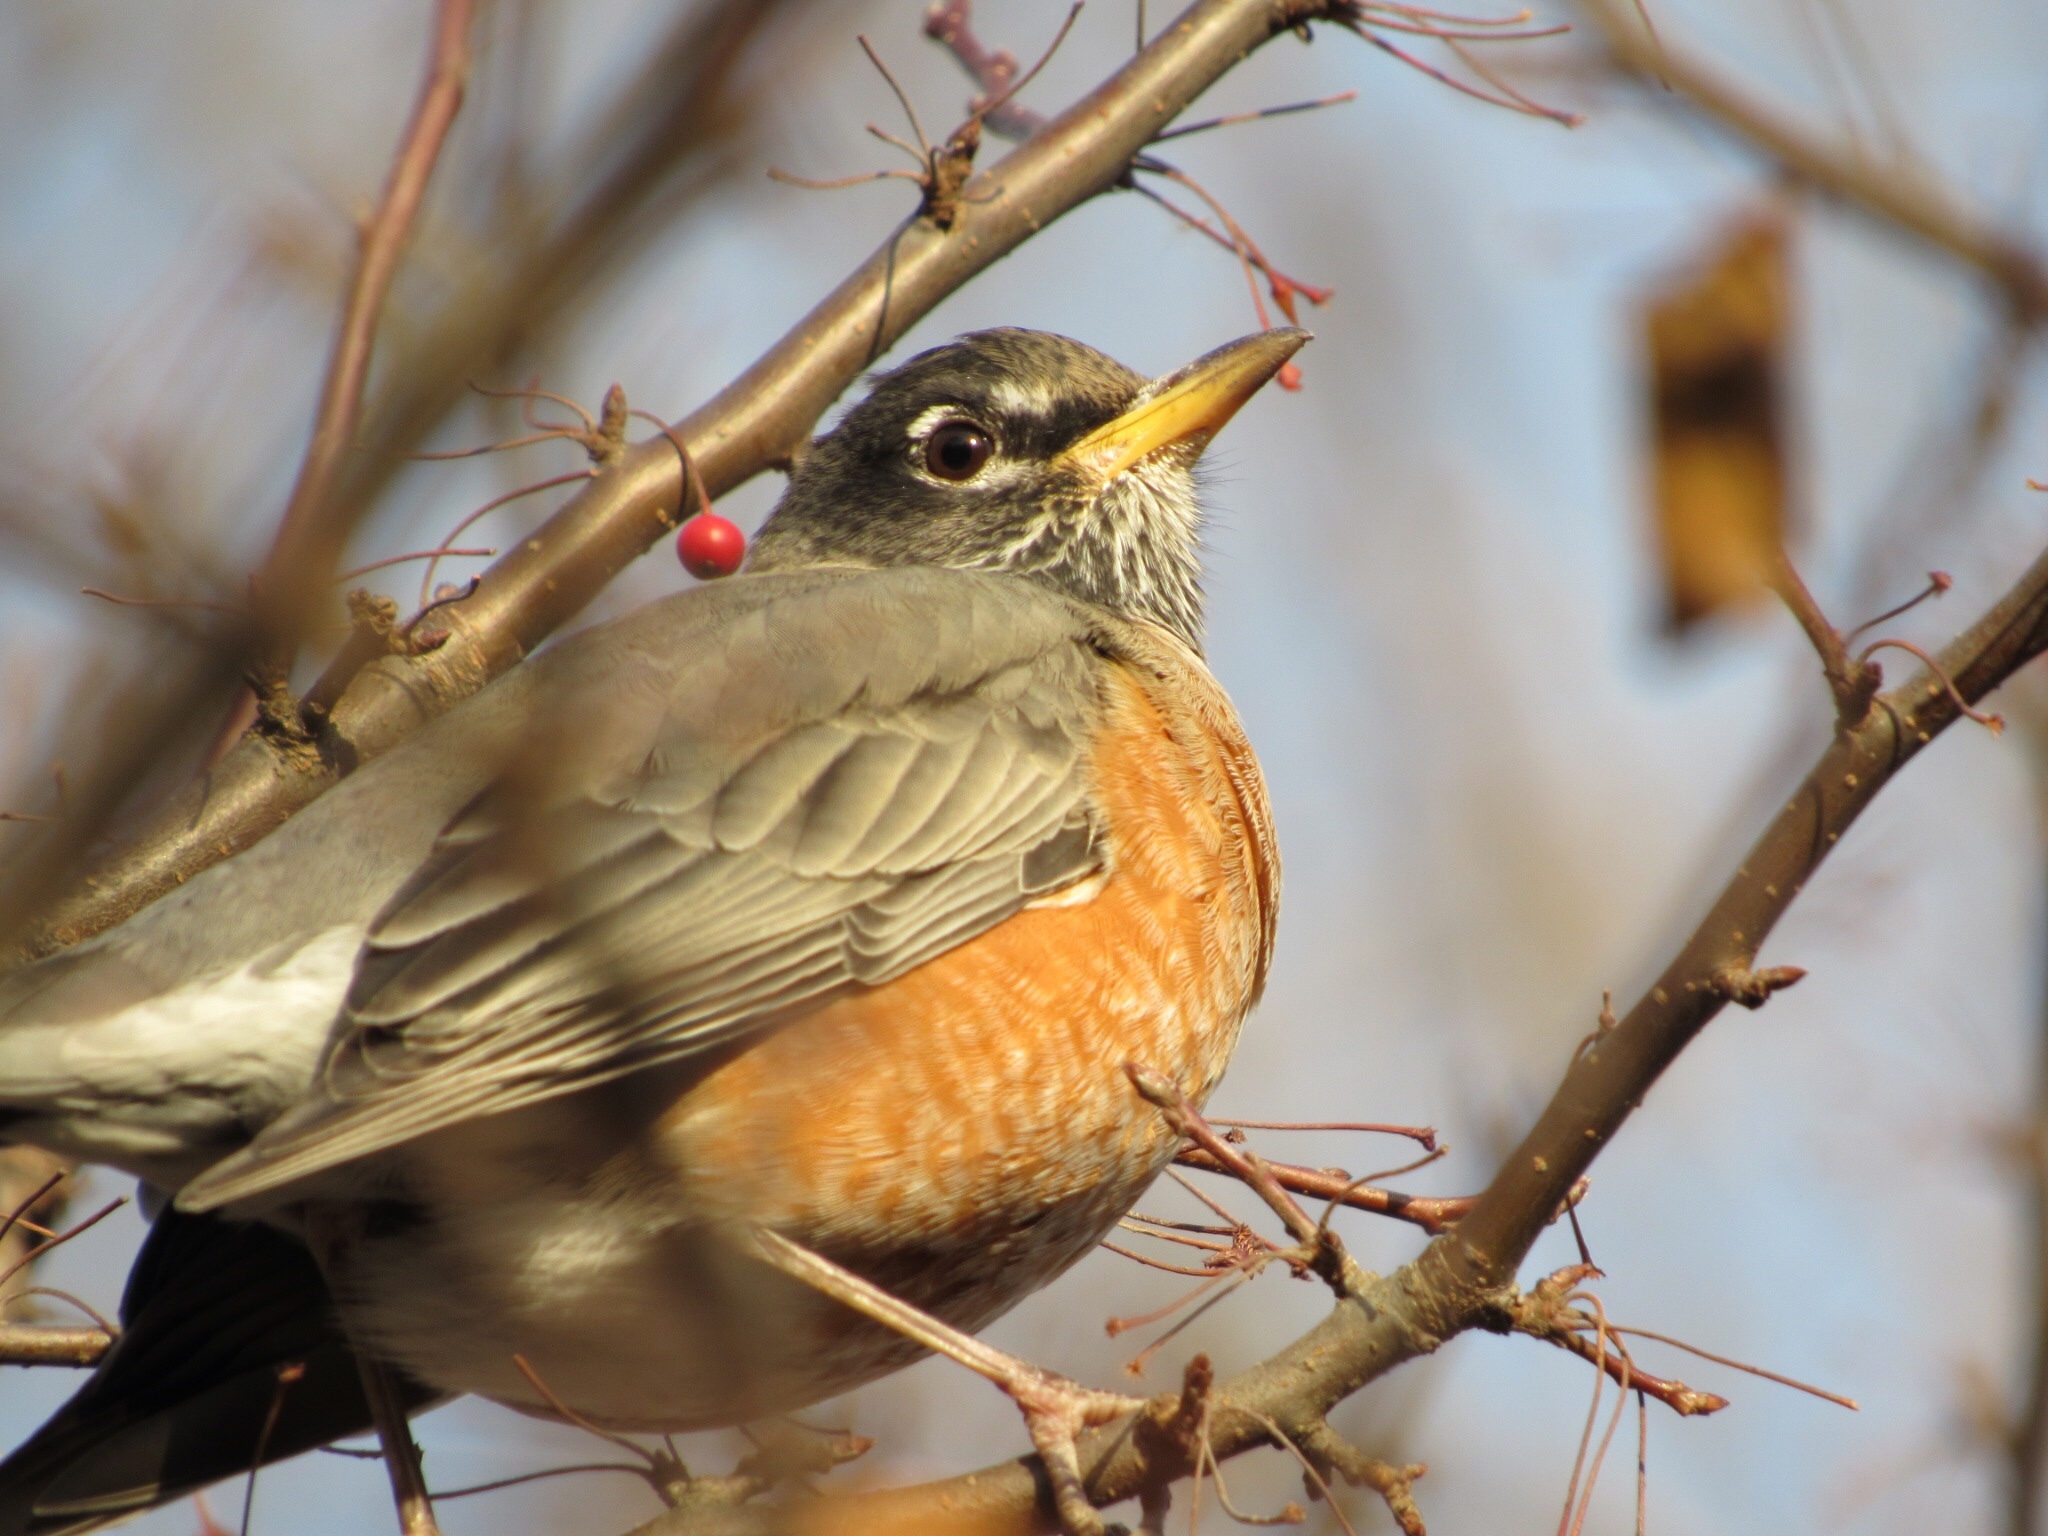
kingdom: Animalia
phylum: Chordata
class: Aves
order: Passeriformes
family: Turdidae
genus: Turdus
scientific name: Turdus migratorius
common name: American robin
